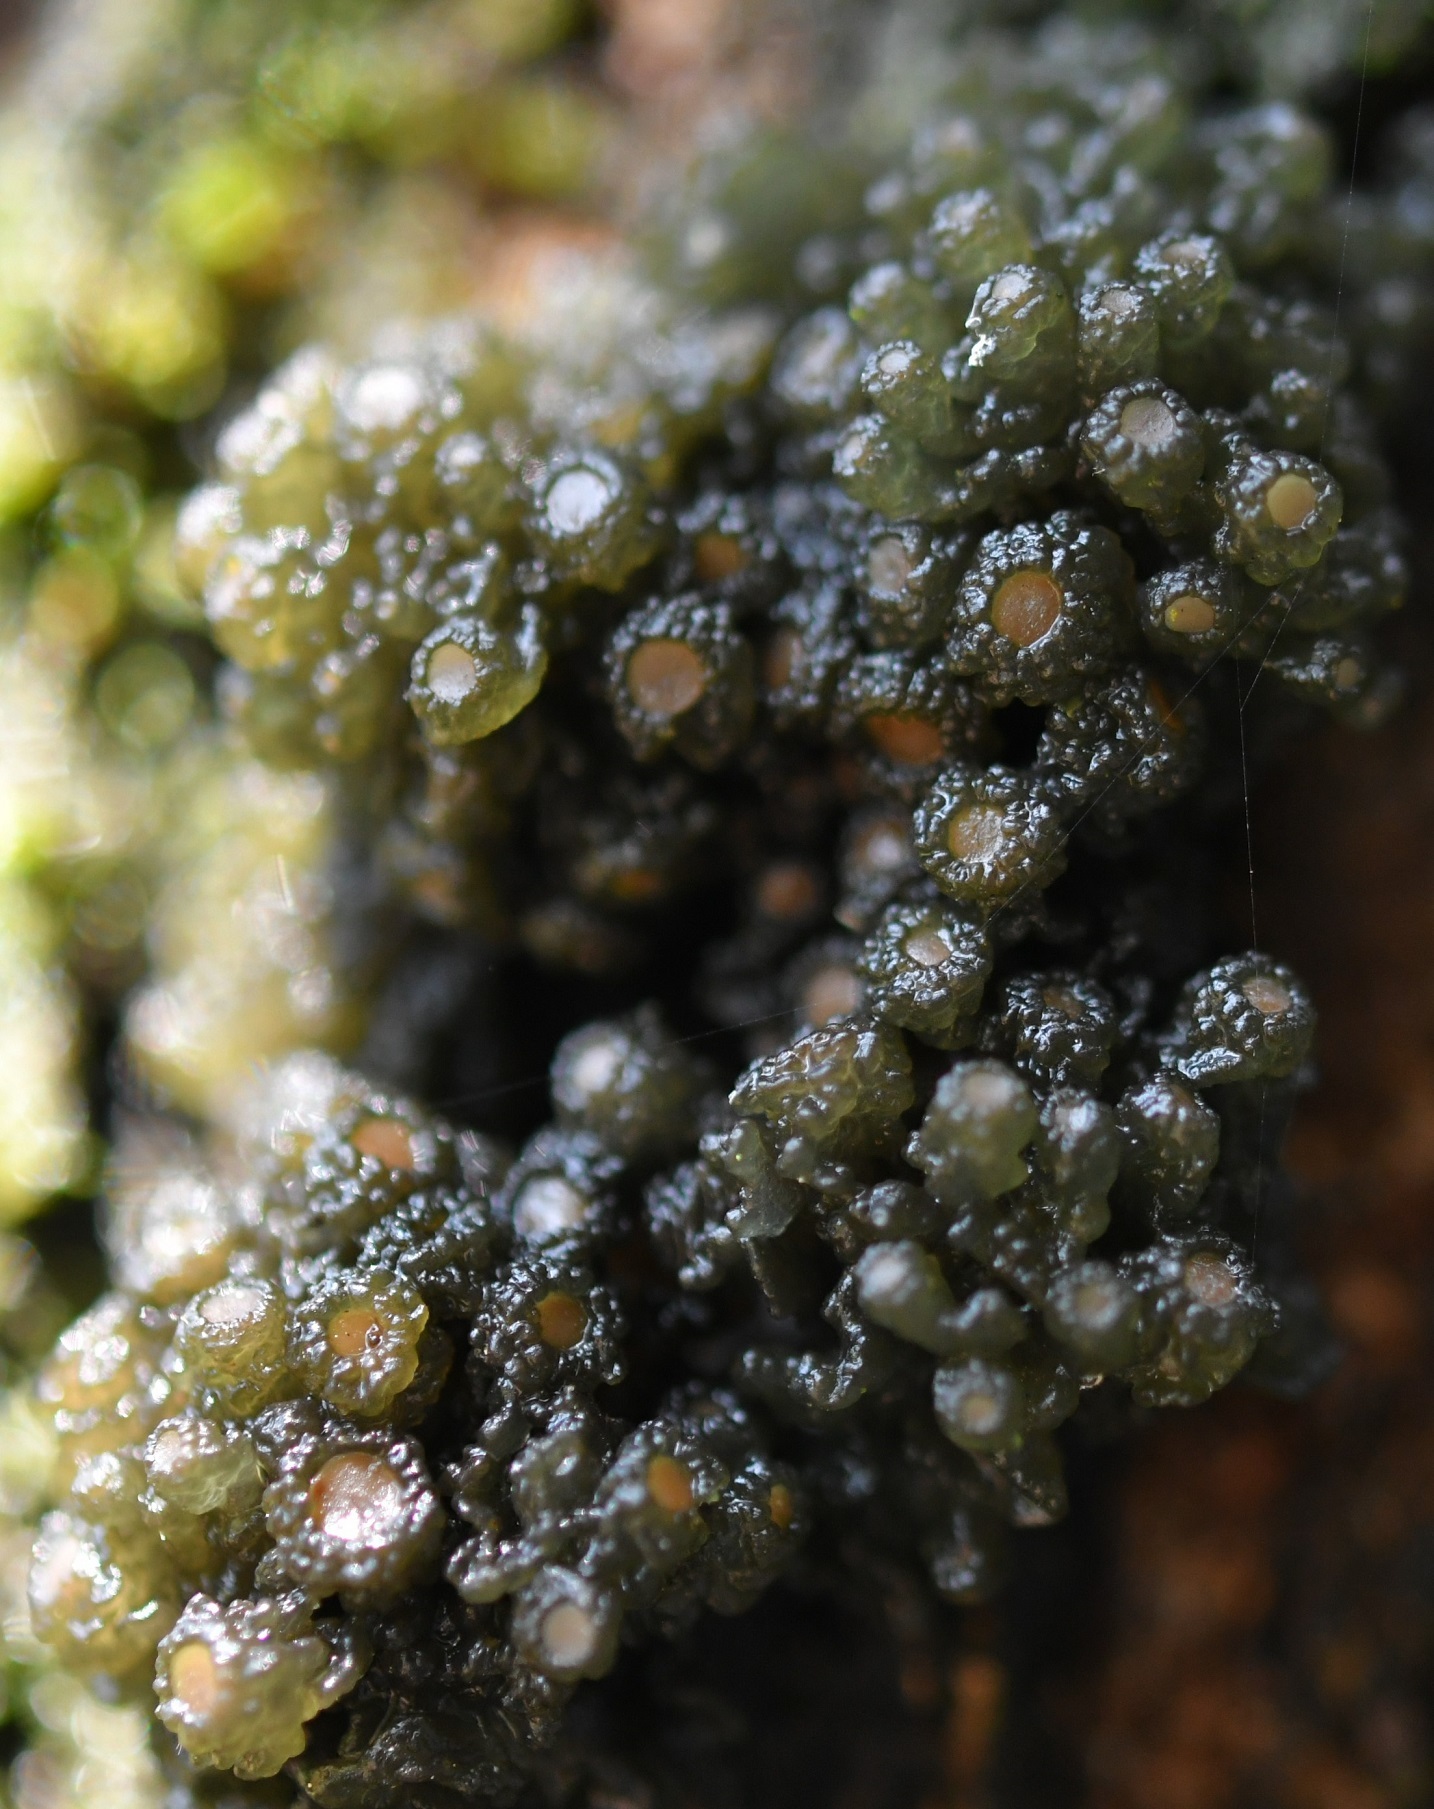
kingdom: Fungi
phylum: Ascomycota
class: Lecanoromycetes
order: Peltigerales
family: Collemataceae
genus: Leptogium
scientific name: Leptogium phyllocarpum
